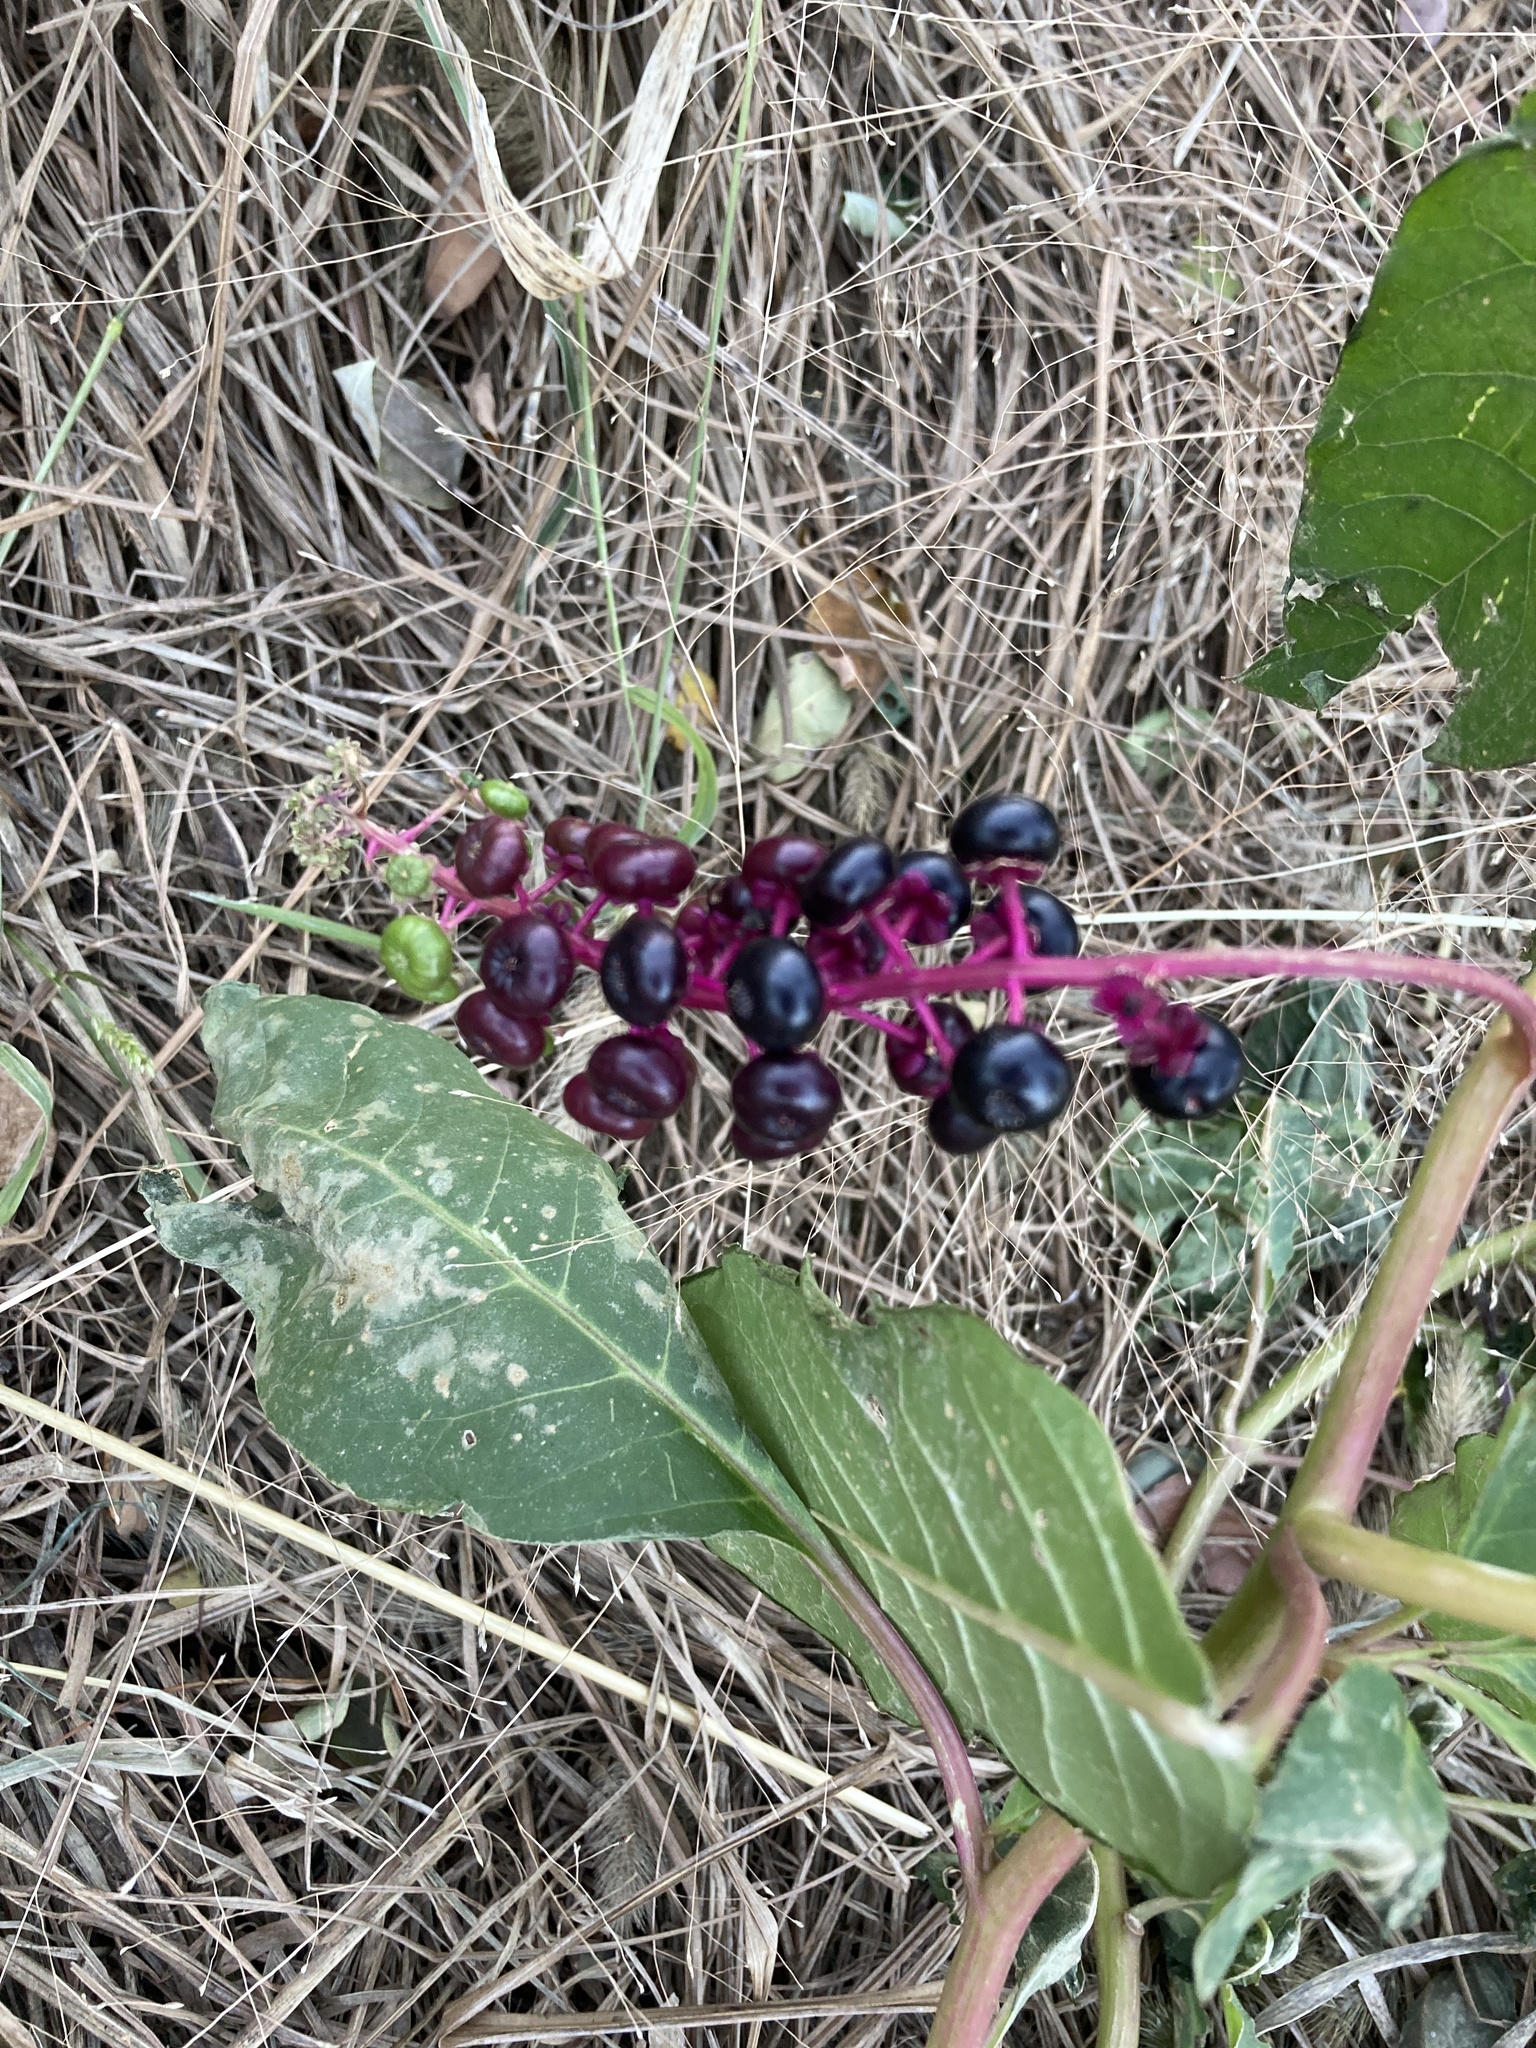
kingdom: Plantae
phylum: Tracheophyta
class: Magnoliopsida
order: Caryophyllales
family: Phytolaccaceae
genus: Phytolacca
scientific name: Phytolacca americana
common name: American pokeweed
